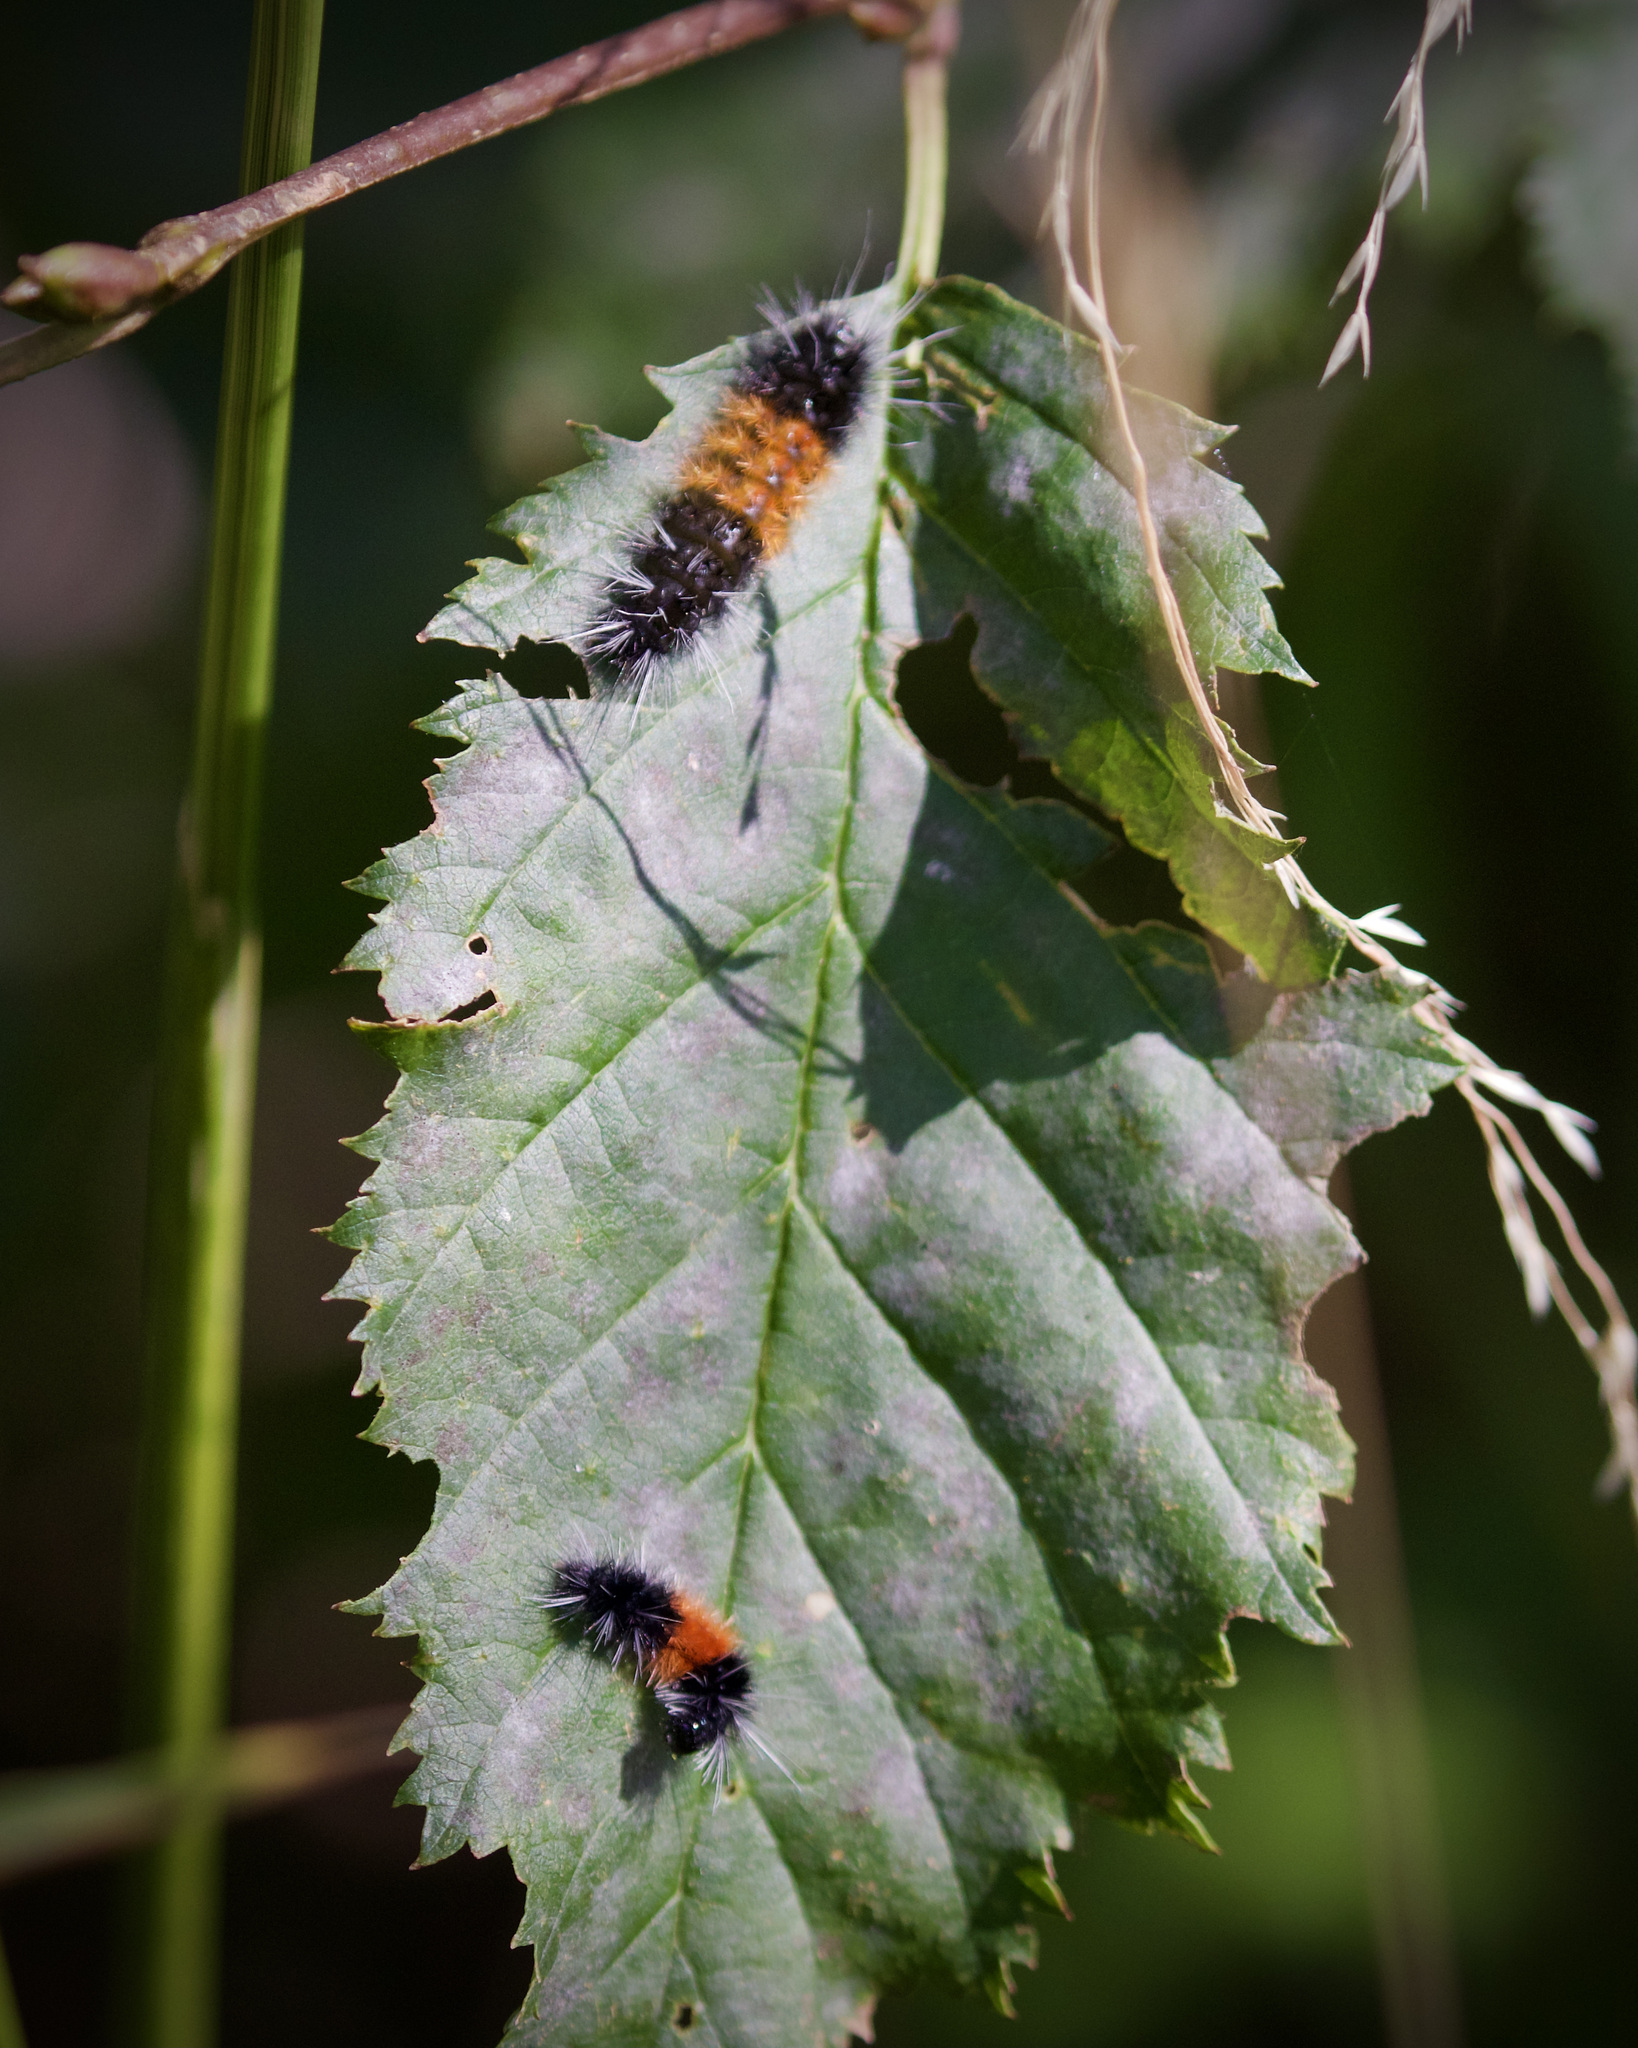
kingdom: Animalia
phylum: Arthropoda
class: Insecta
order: Lepidoptera
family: Erebidae
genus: Lophocampa
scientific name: Lophocampa maculata
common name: Spotted tussock moth
